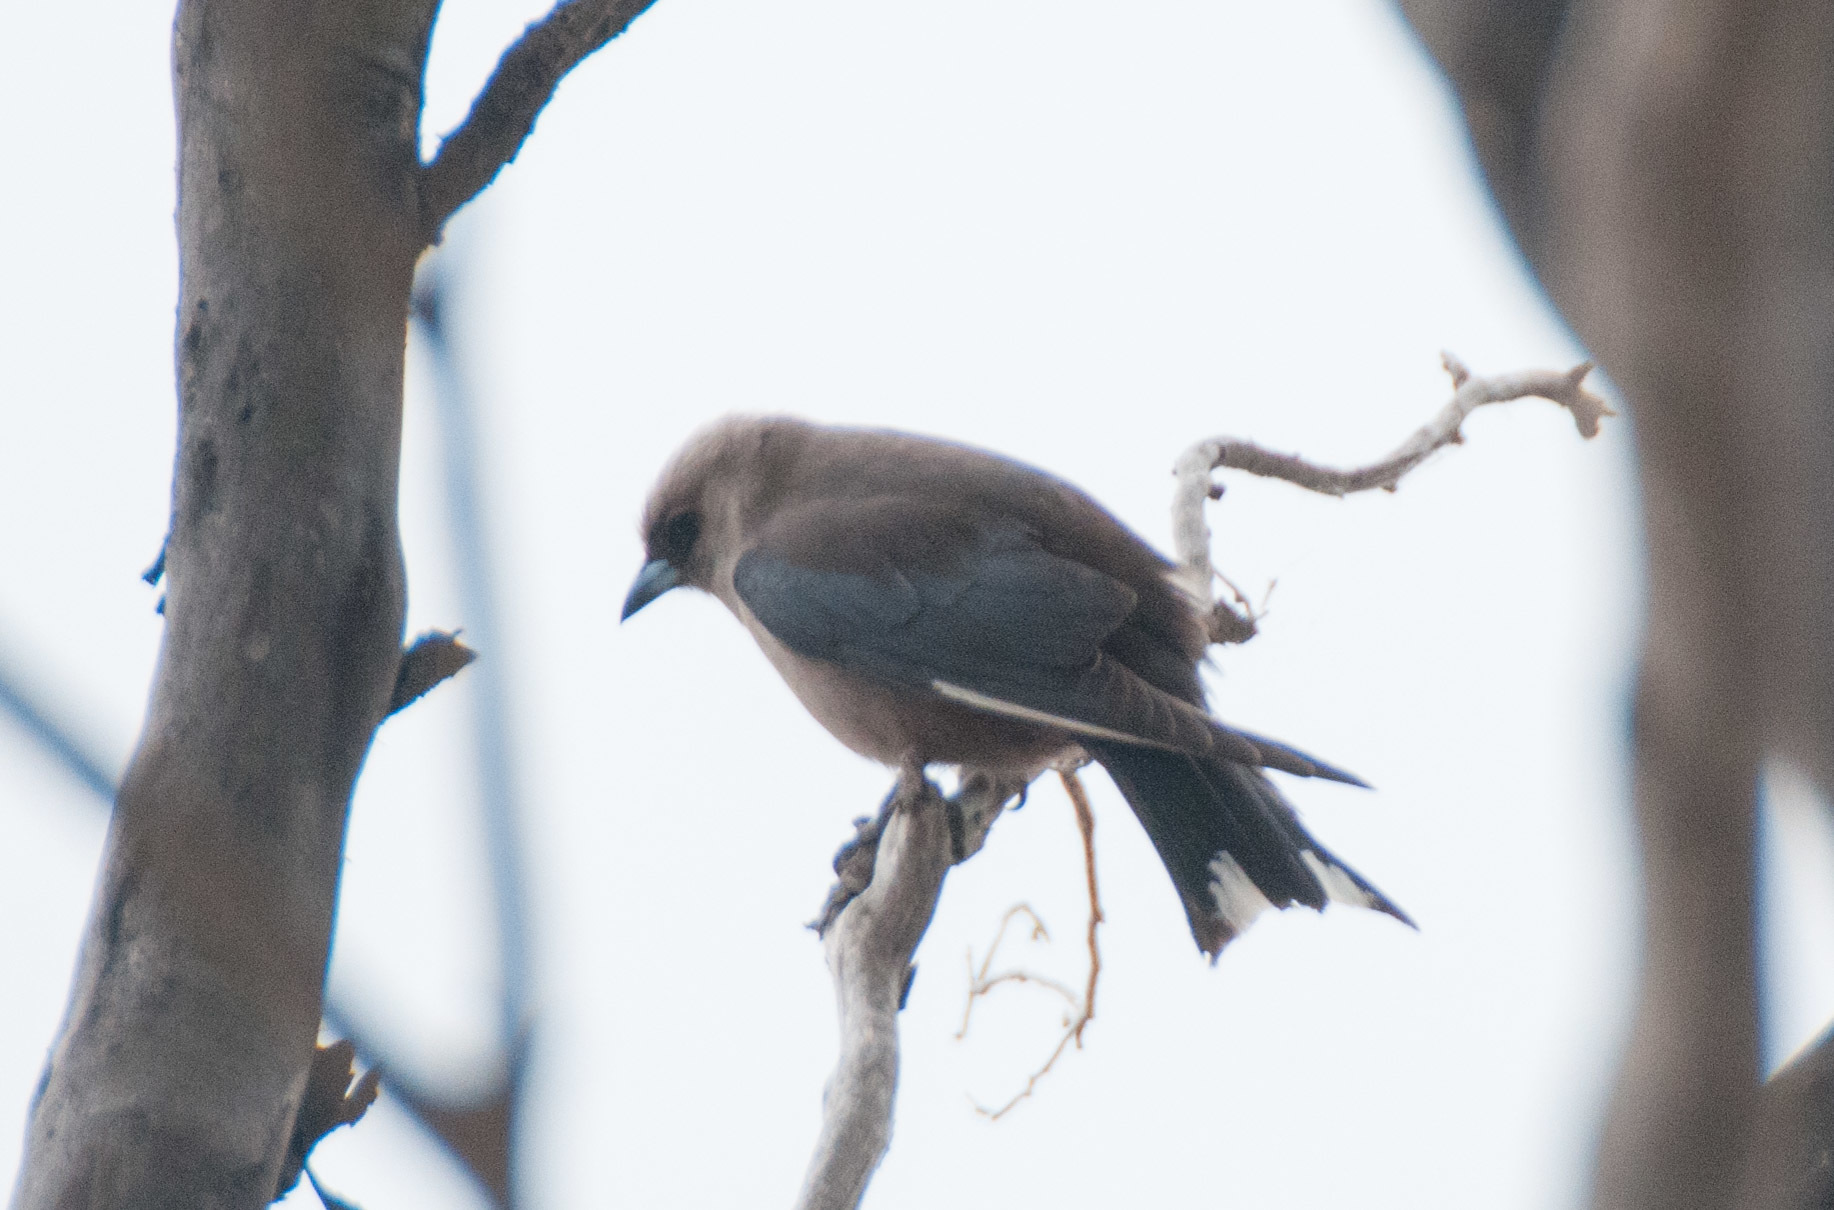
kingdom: Animalia
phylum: Chordata
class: Aves
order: Passeriformes
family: Artamidae
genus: Artamus
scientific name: Artamus cyanopterus
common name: Dusky woodswallow
